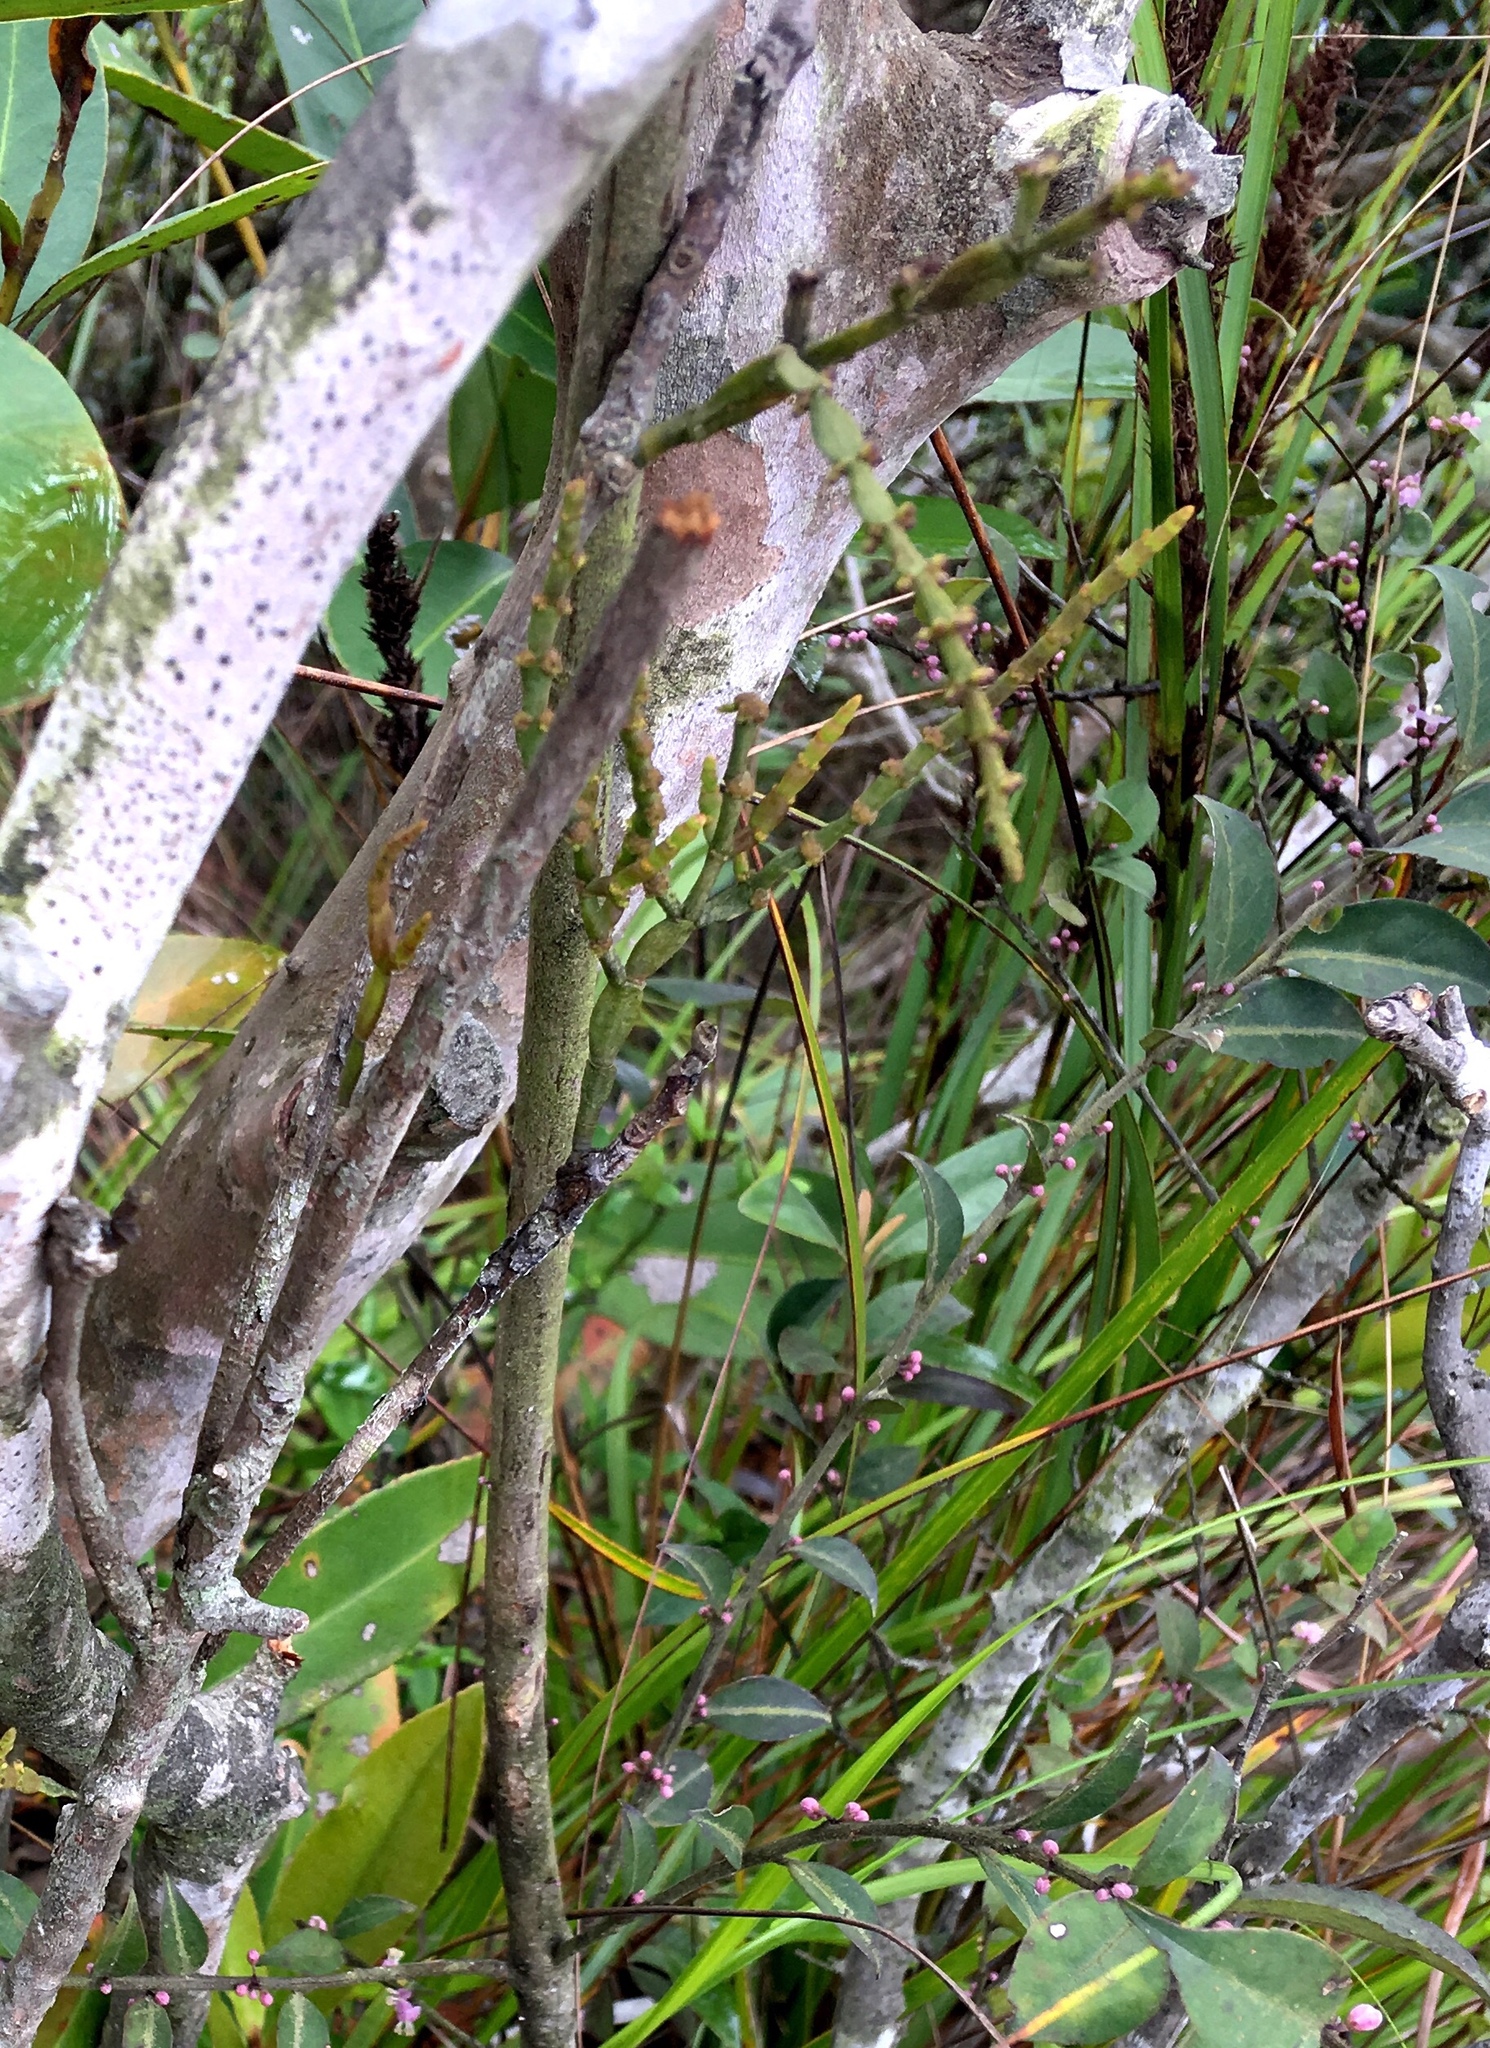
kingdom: Plantae
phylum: Tracheophyta
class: Magnoliopsida
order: Santalales
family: Viscaceae
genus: Korthalsella
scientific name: Korthalsella japonica
